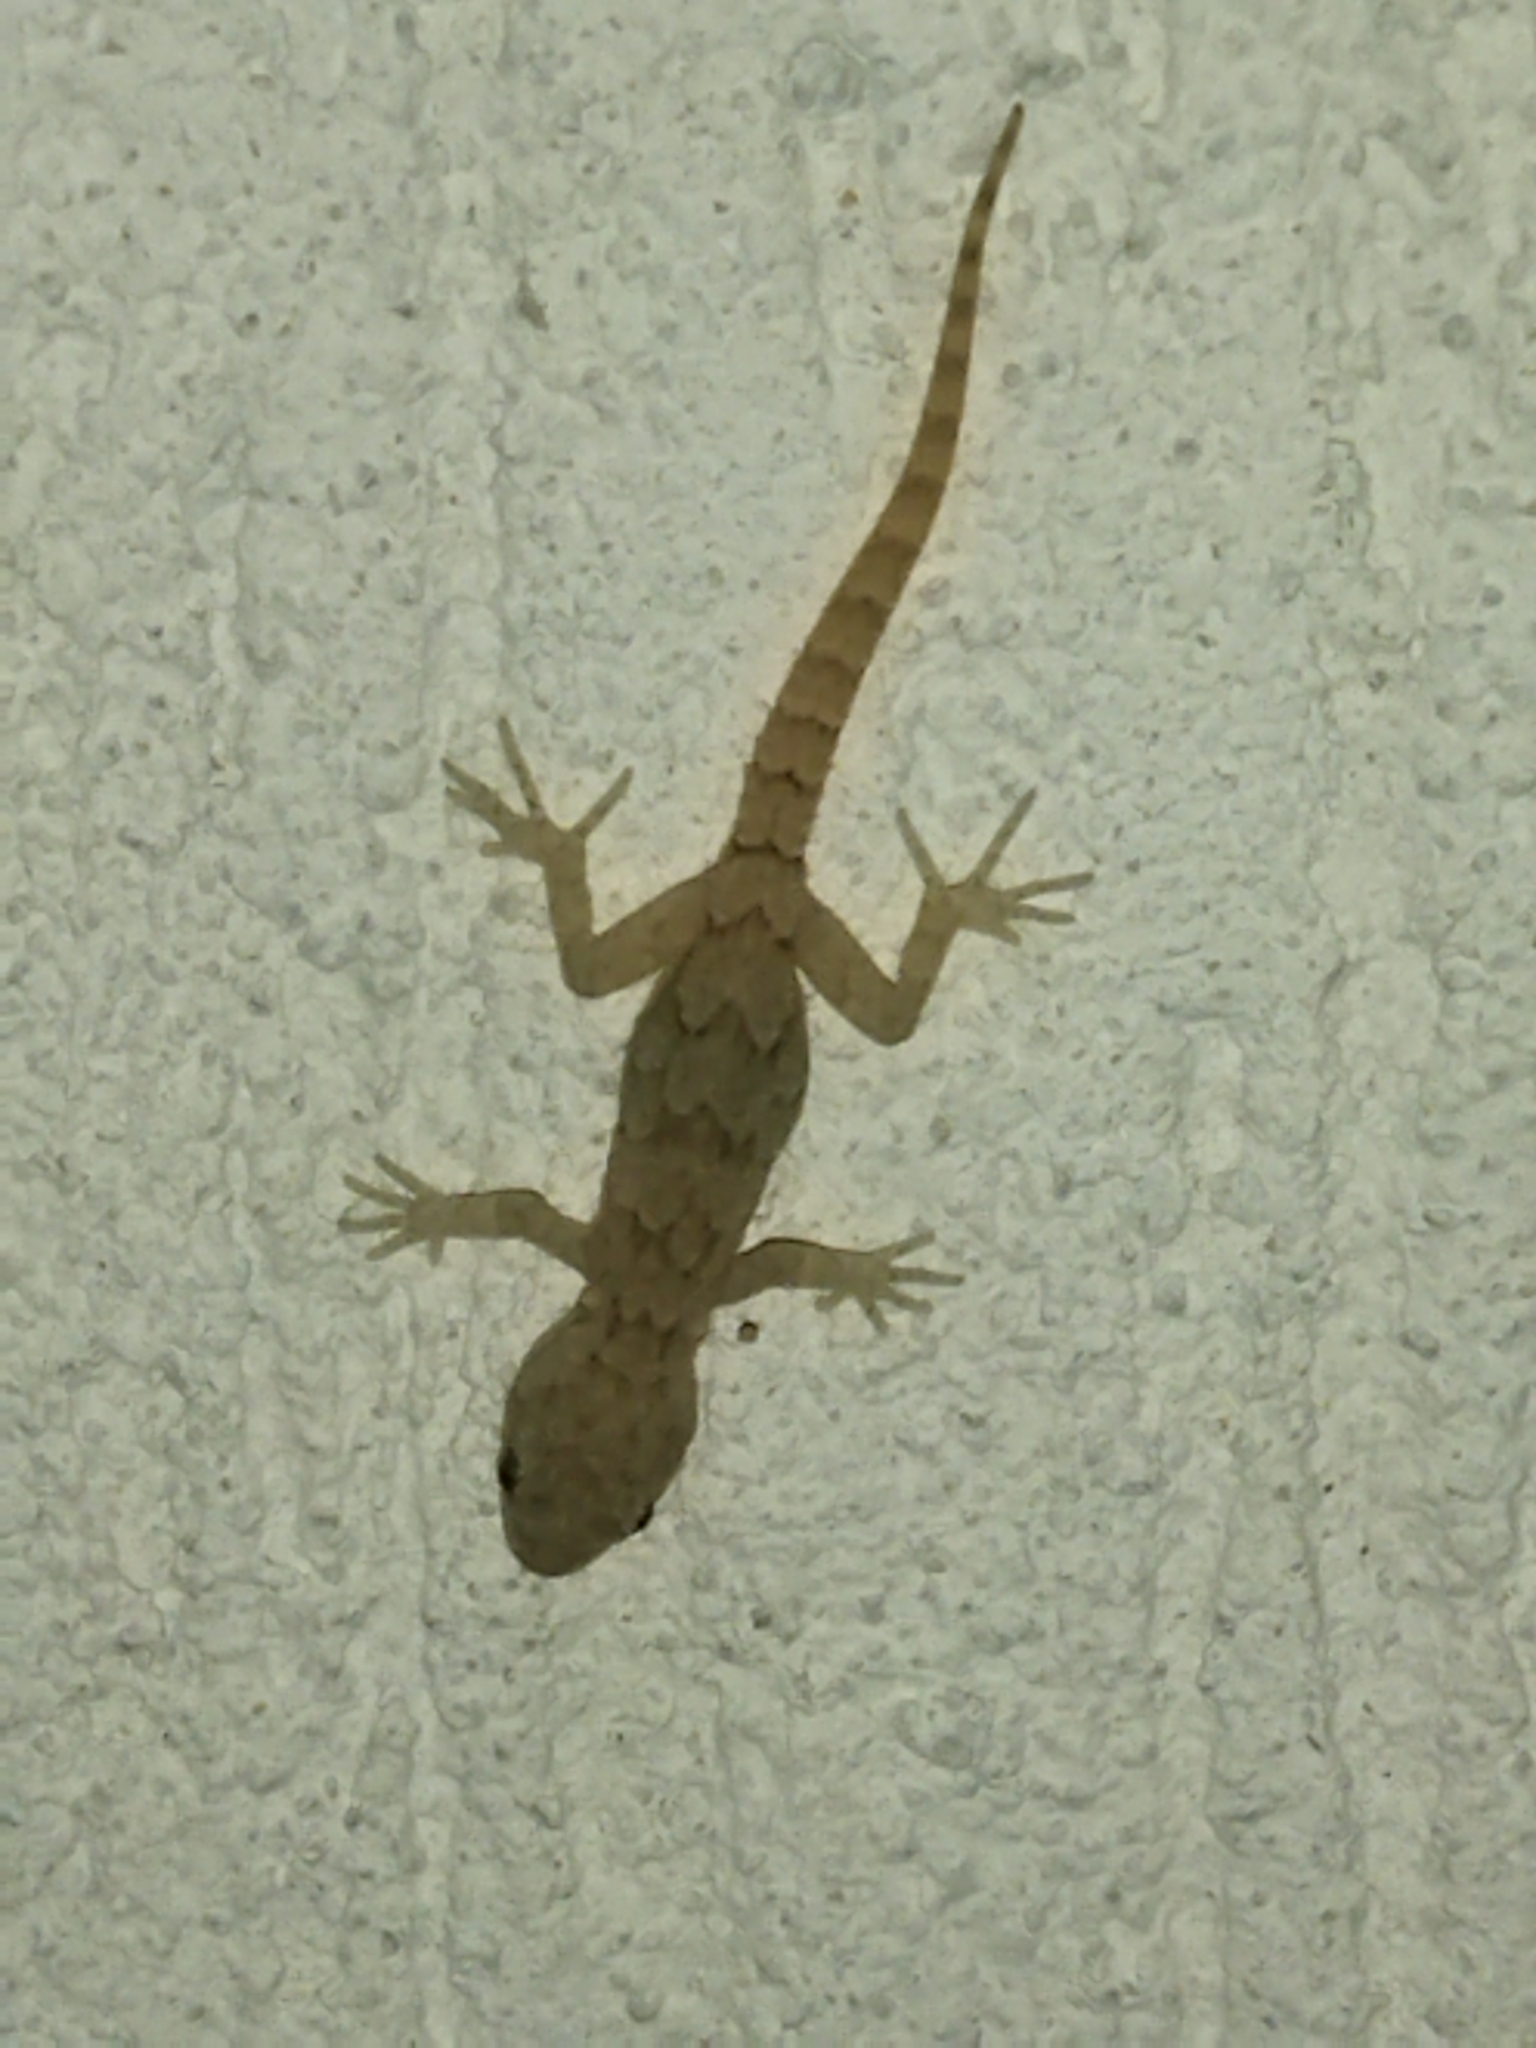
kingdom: Animalia
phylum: Chordata
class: Squamata
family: Gekkonidae
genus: Mediodactylus
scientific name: Mediodactylus kotschyi
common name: Kotschy's gecko
